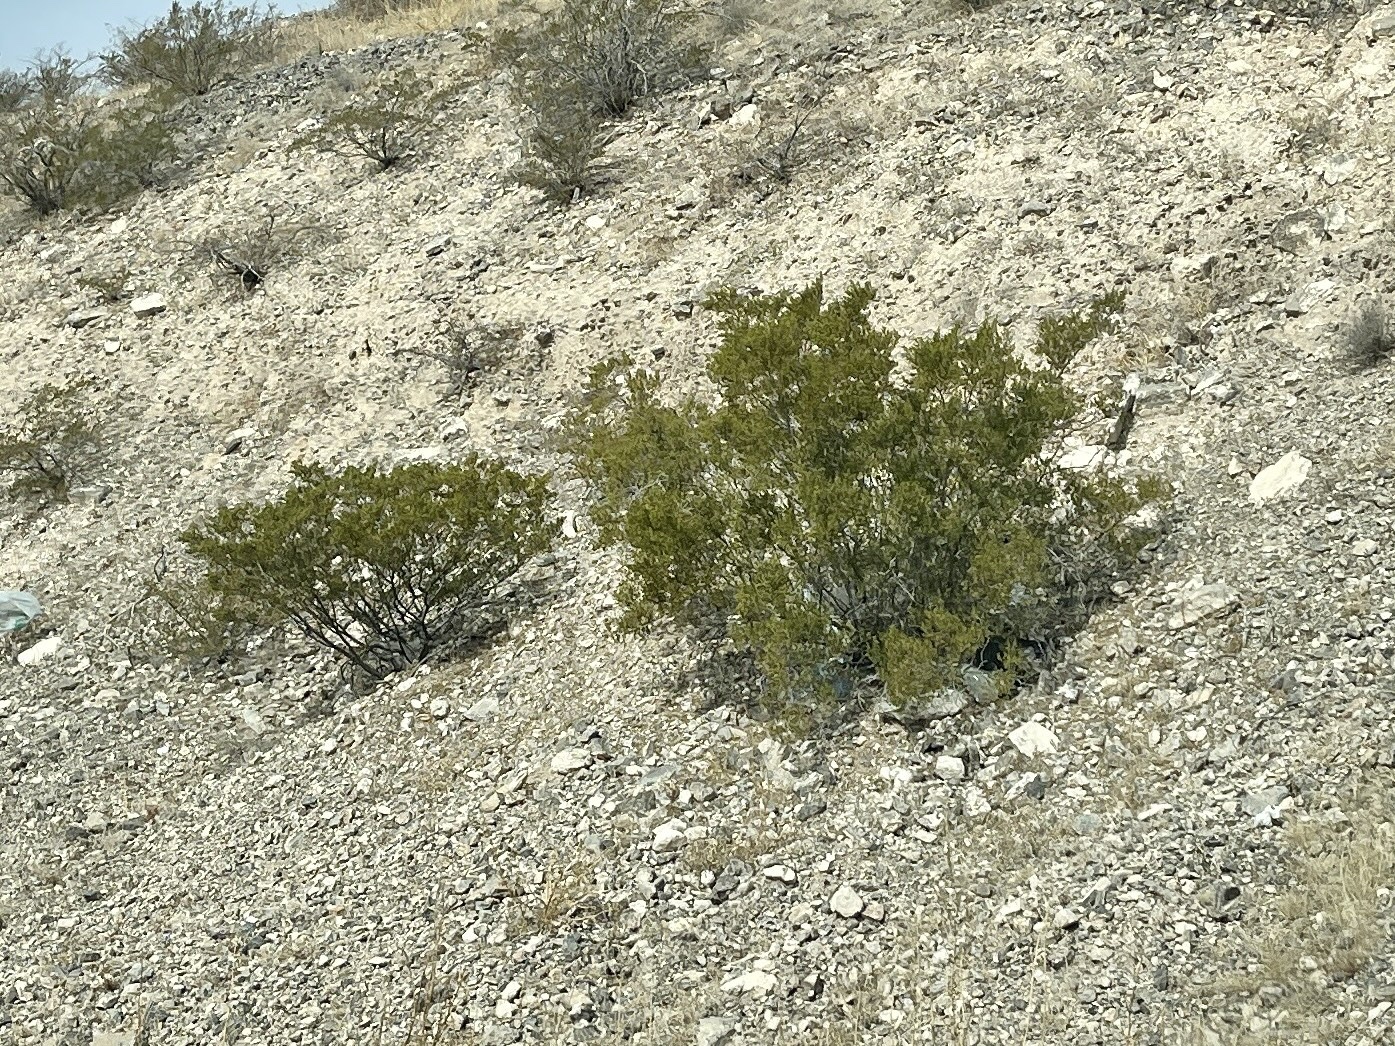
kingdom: Plantae
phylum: Tracheophyta
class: Magnoliopsida
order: Zygophyllales
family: Zygophyllaceae
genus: Larrea
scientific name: Larrea tridentata
